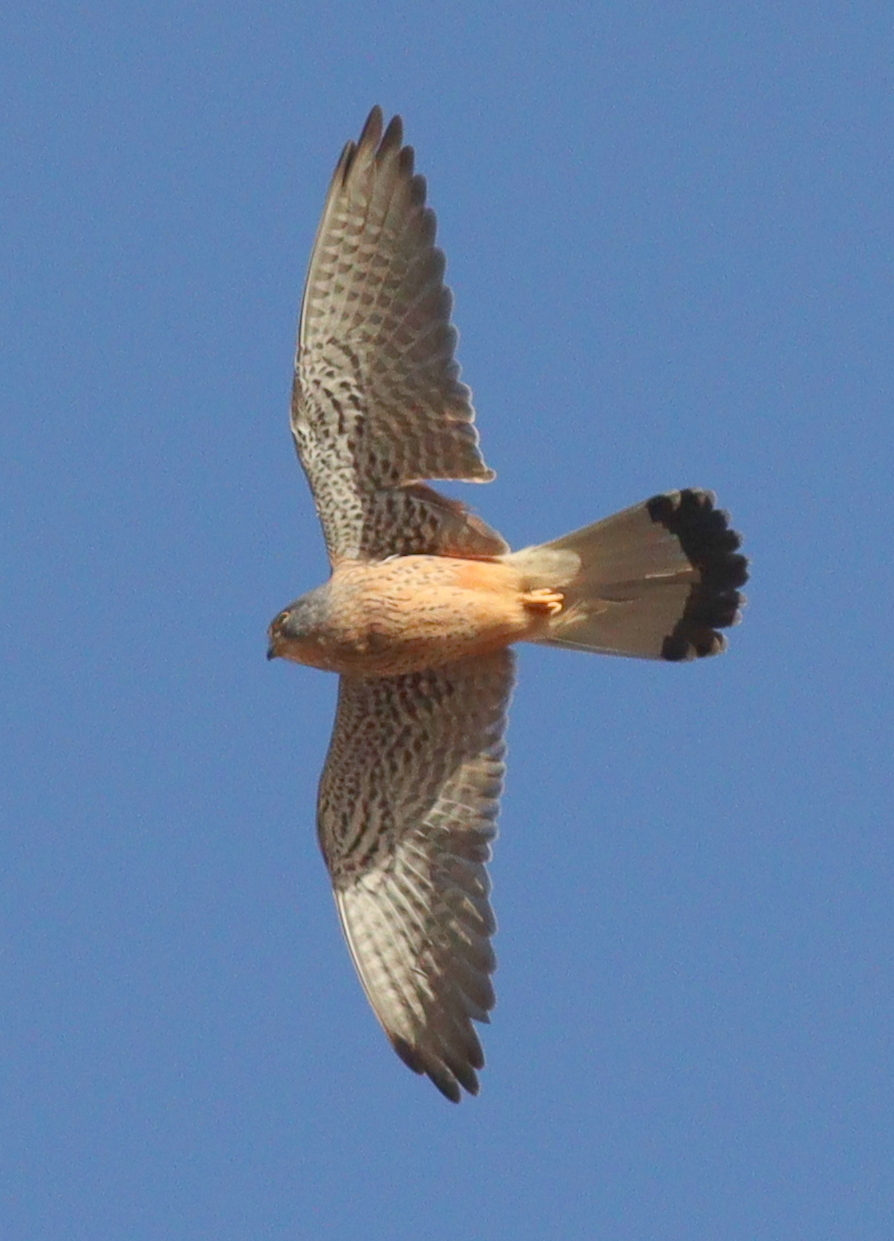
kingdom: Animalia
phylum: Chordata
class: Aves
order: Falconiformes
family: Falconidae
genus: Falco
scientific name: Falco naumanni
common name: Lesser kestrel
